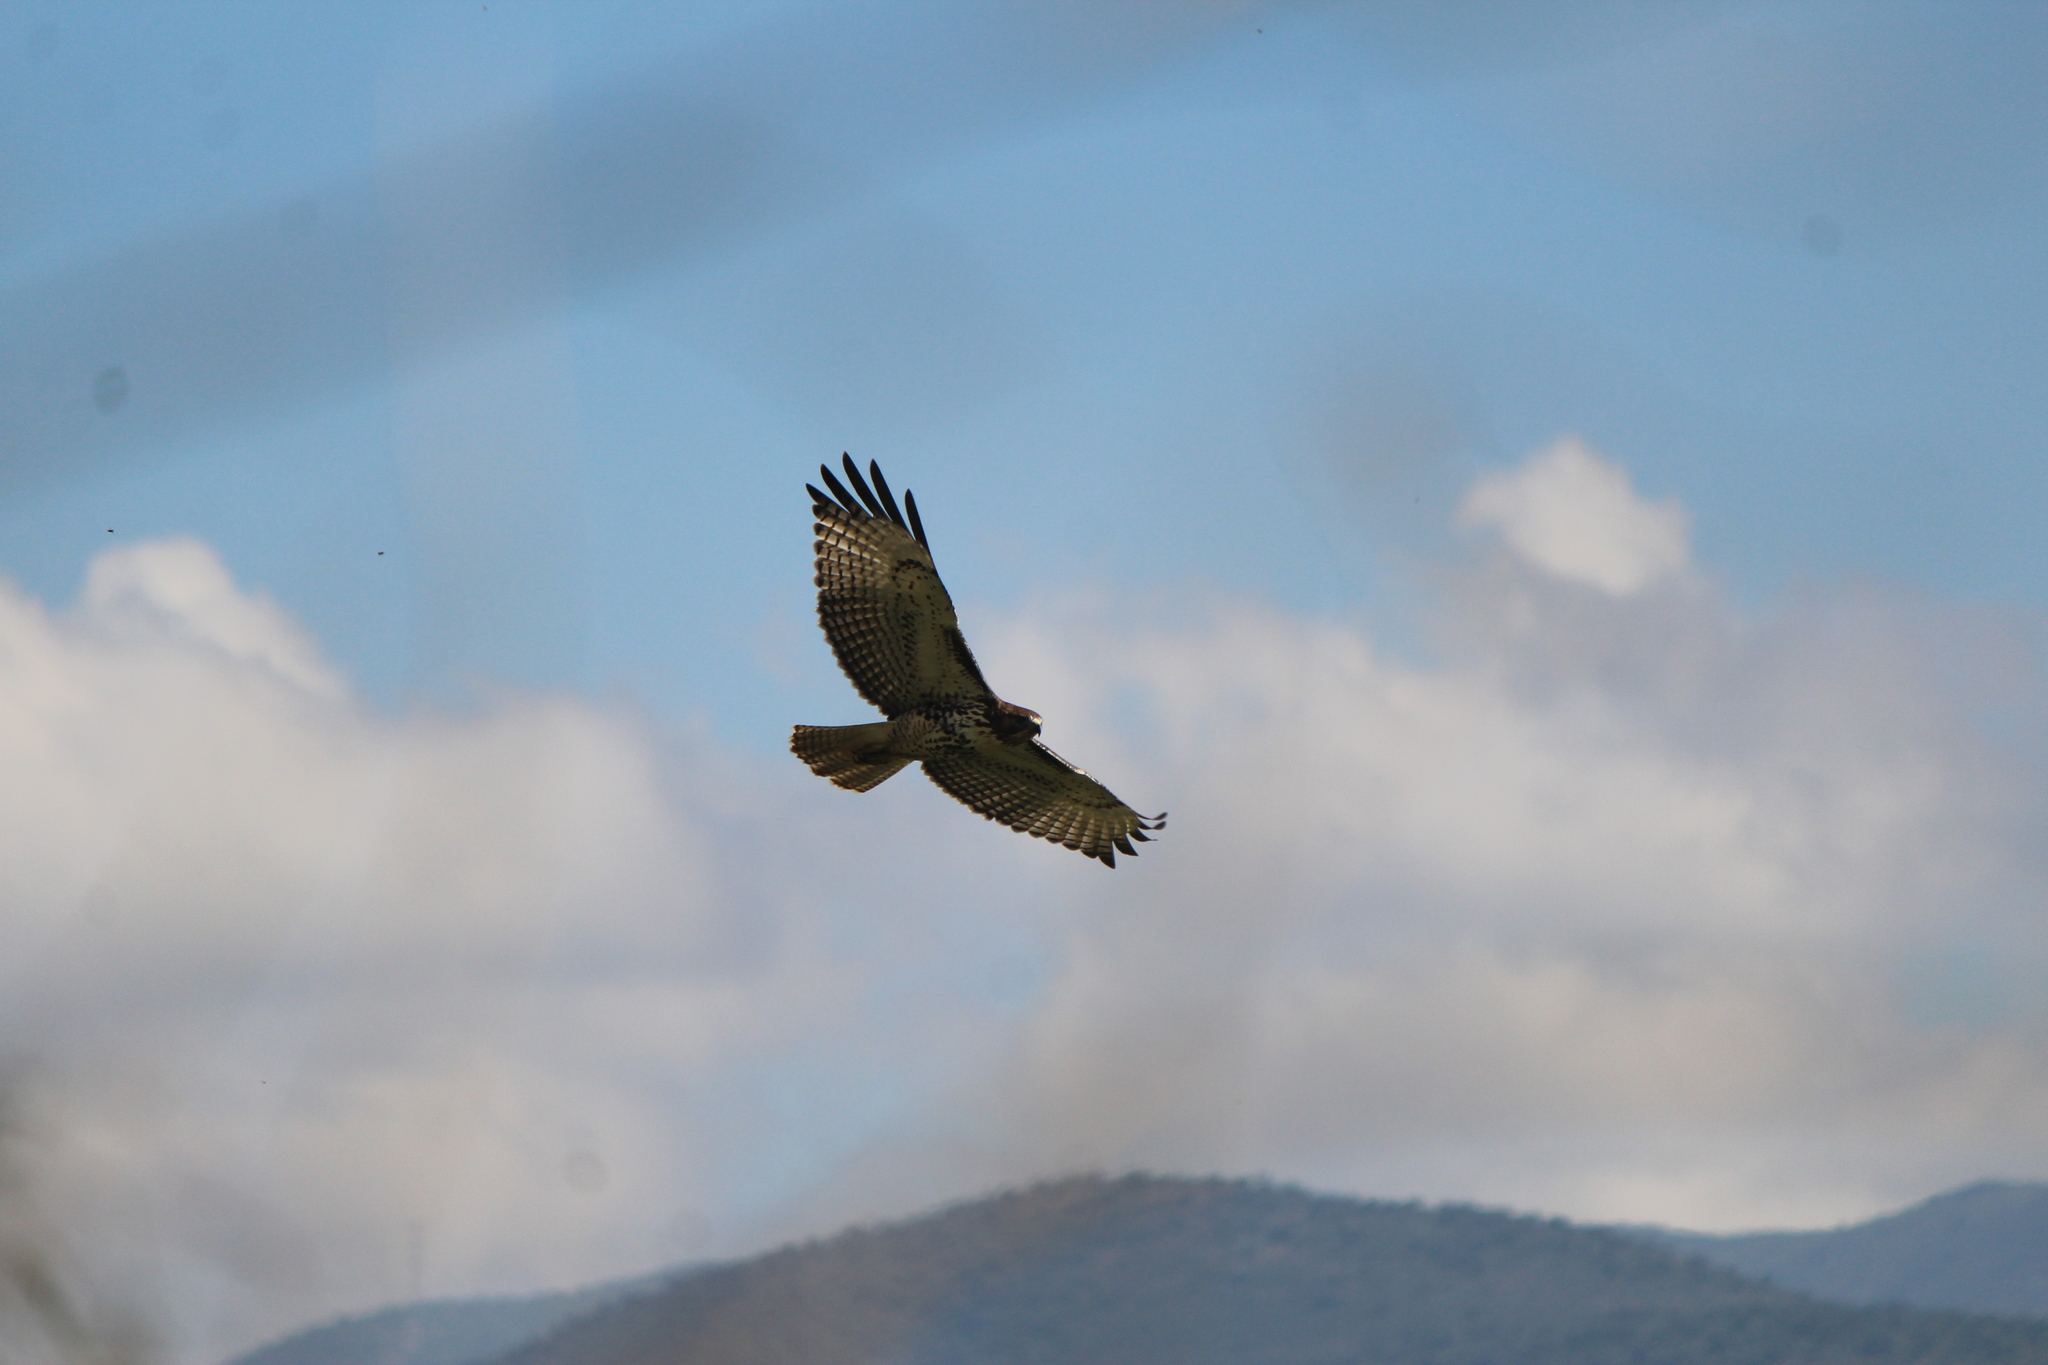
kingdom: Animalia
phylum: Chordata
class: Aves
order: Accipitriformes
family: Accipitridae
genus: Buteo
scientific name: Buteo jamaicensis
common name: Red-tailed hawk
